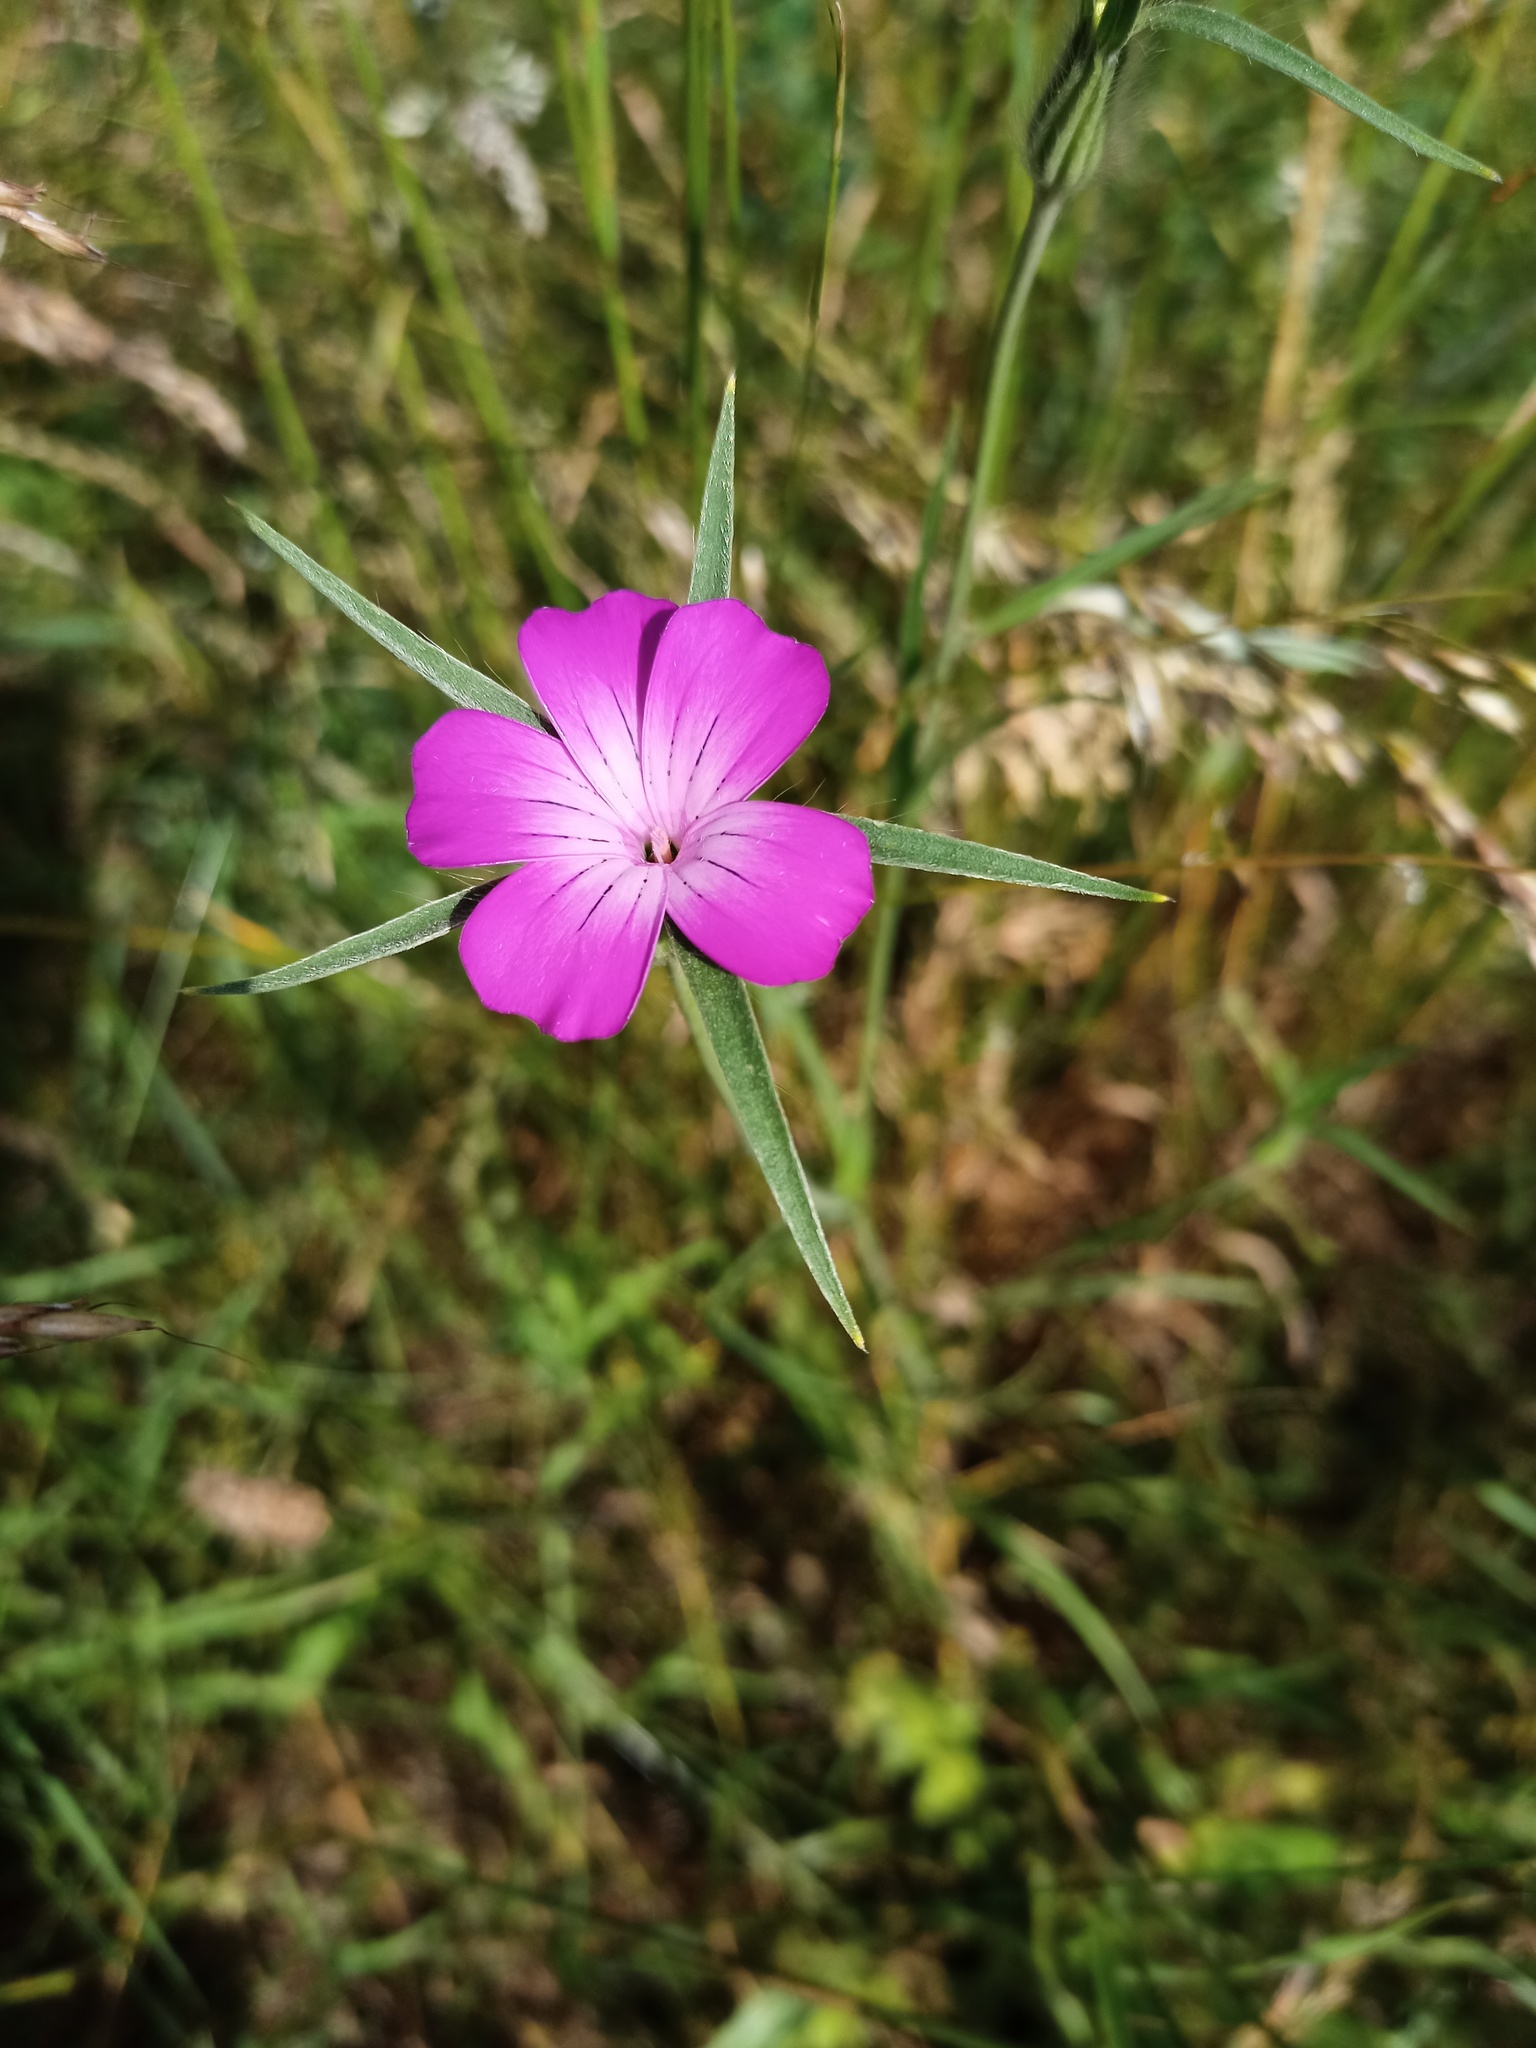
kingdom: Plantae
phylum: Tracheophyta
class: Magnoliopsida
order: Caryophyllales
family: Caryophyllaceae
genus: Agrostemma
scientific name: Agrostemma githago
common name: Common corncockle
